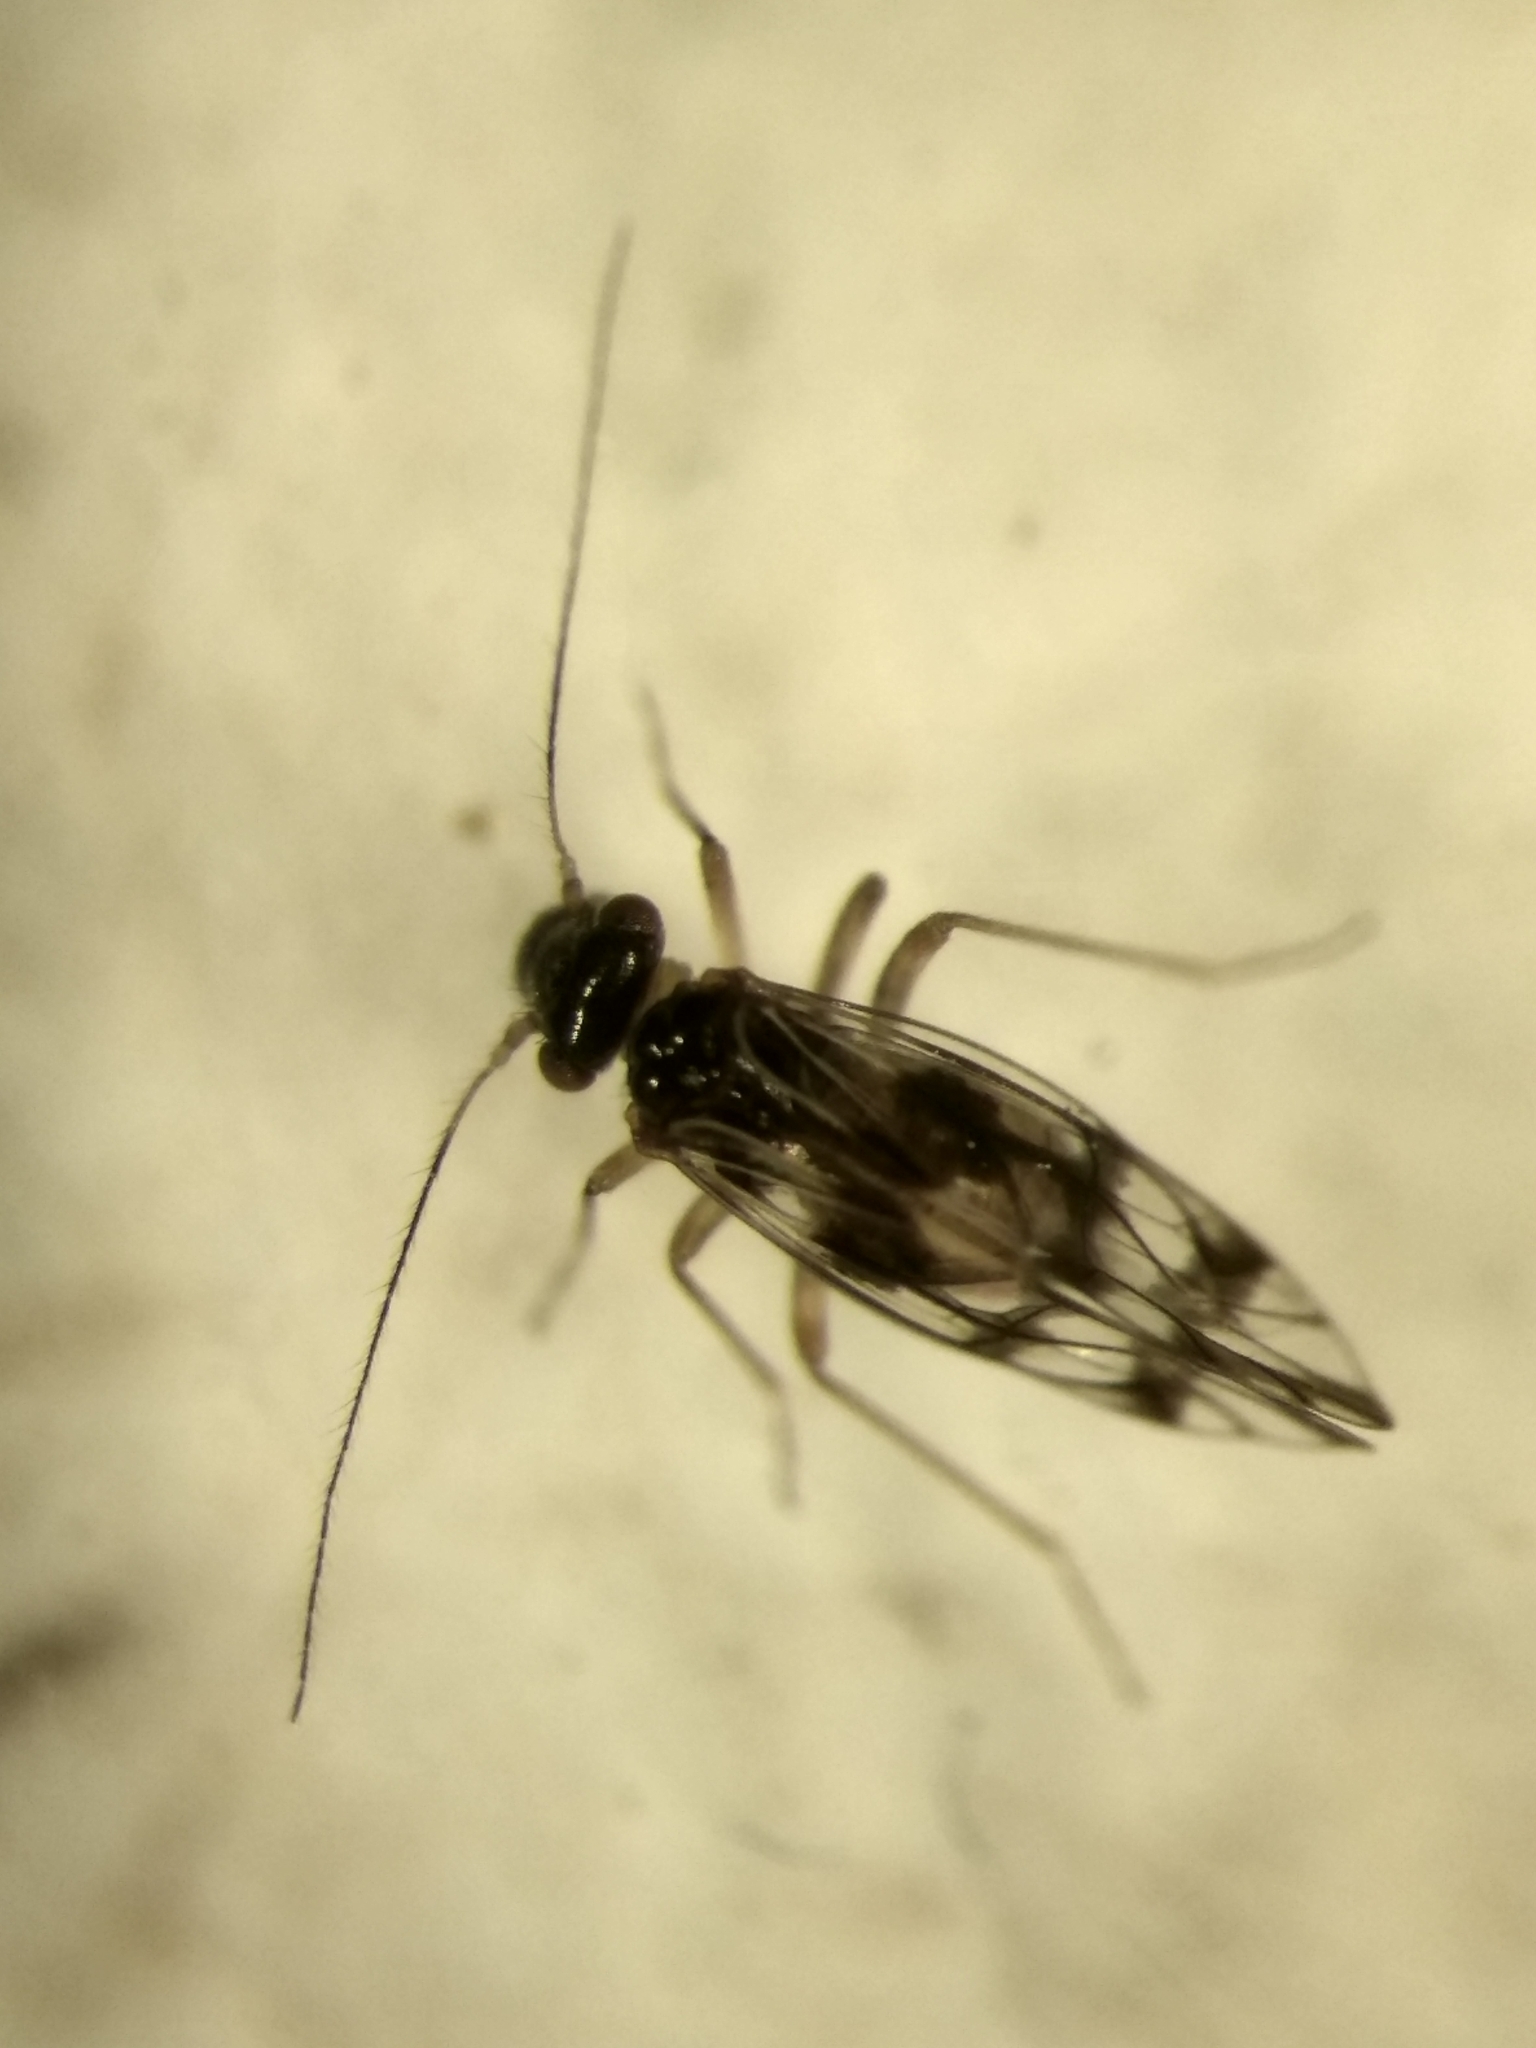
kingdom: Animalia
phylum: Arthropoda
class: Insecta
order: Psocodea
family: Elipsocidae
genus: Propsocus
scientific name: Propsocus pulchripennis
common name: Bark louse
